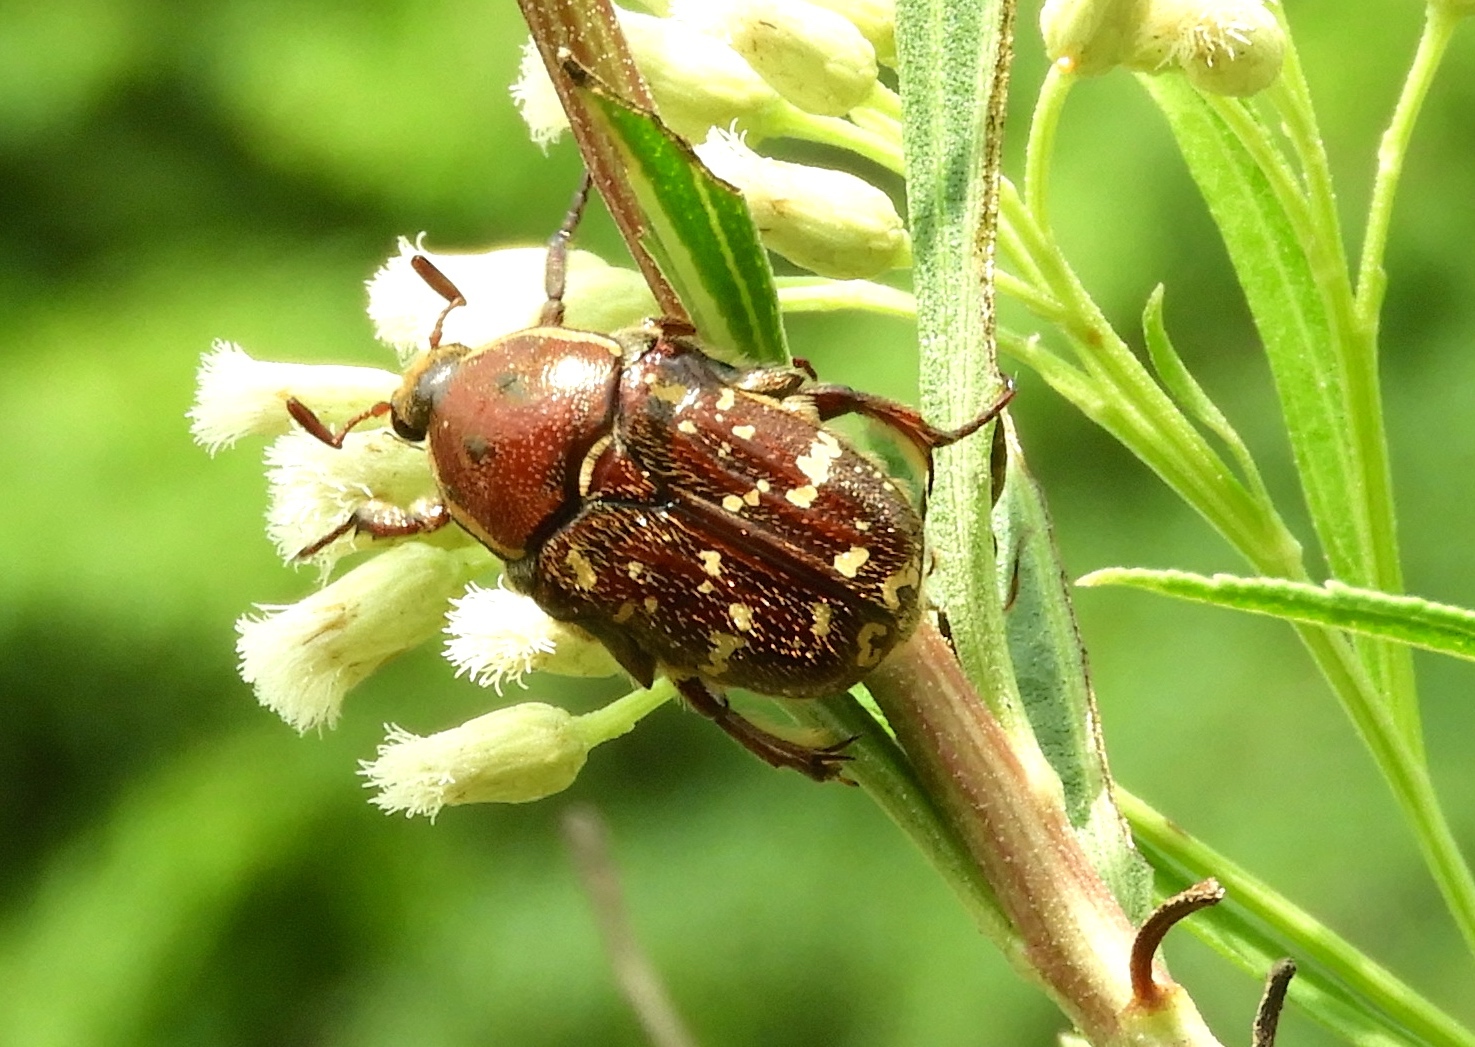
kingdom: Animalia
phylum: Arthropoda
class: Insecta
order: Coleoptera
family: Scarabaeidae
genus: Euphoria
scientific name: Euphoria leucographa
